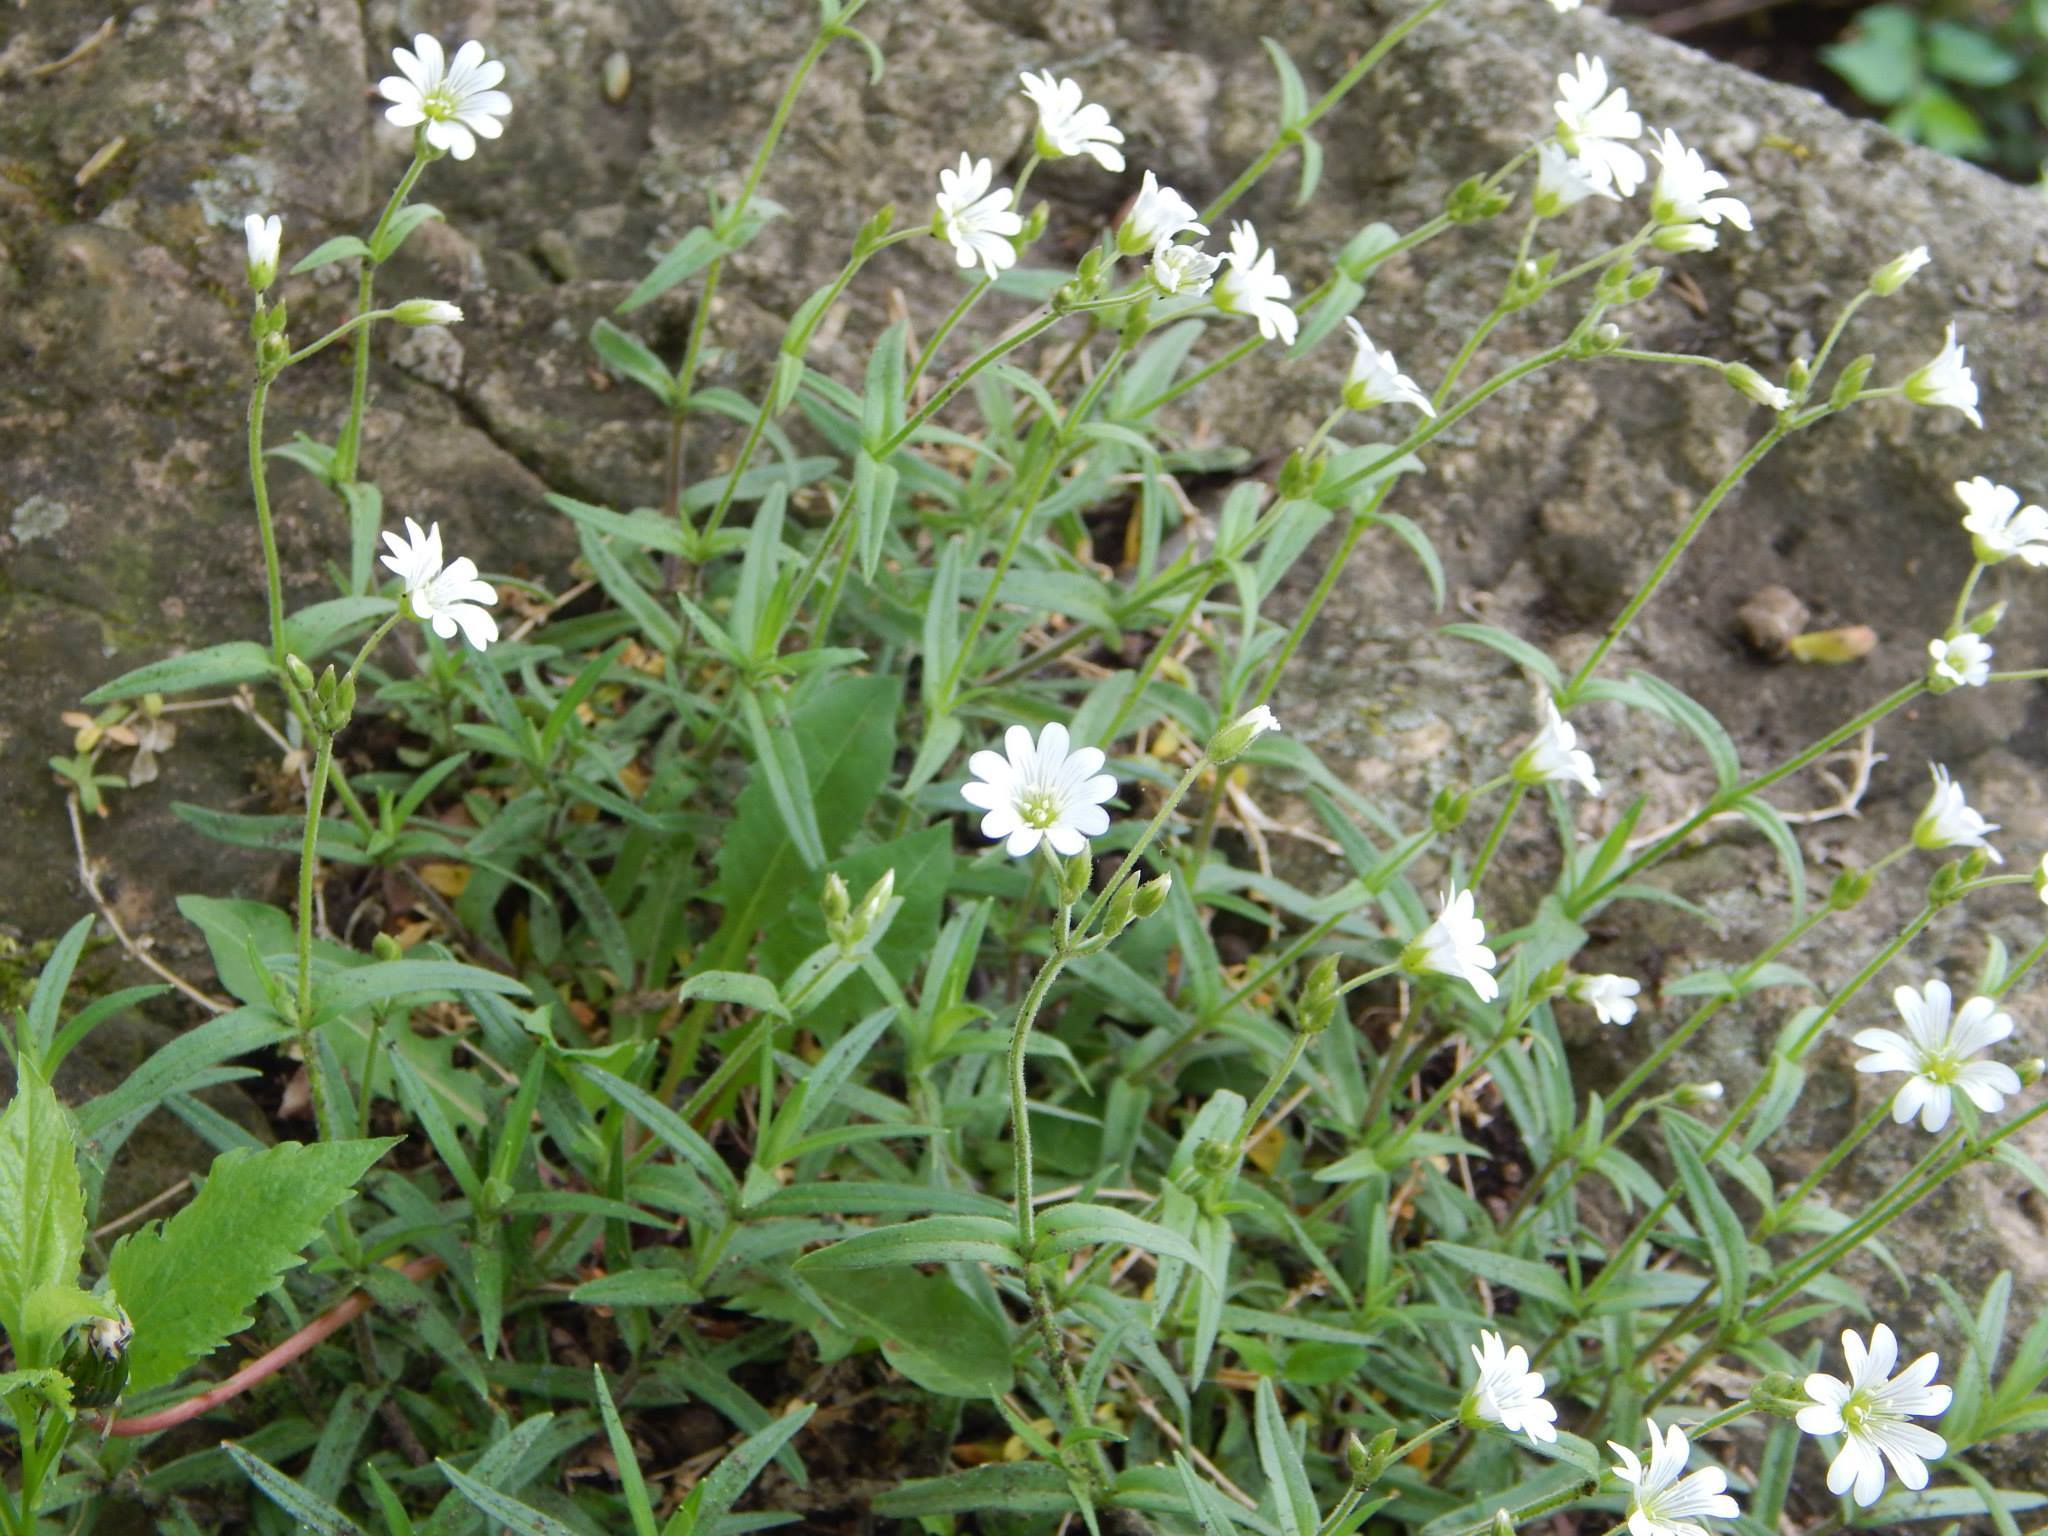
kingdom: Plantae
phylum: Tracheophyta
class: Magnoliopsida
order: Caryophyllales
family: Caryophyllaceae
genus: Cerastium
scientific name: Cerastium arvense
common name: Field mouse-ear
